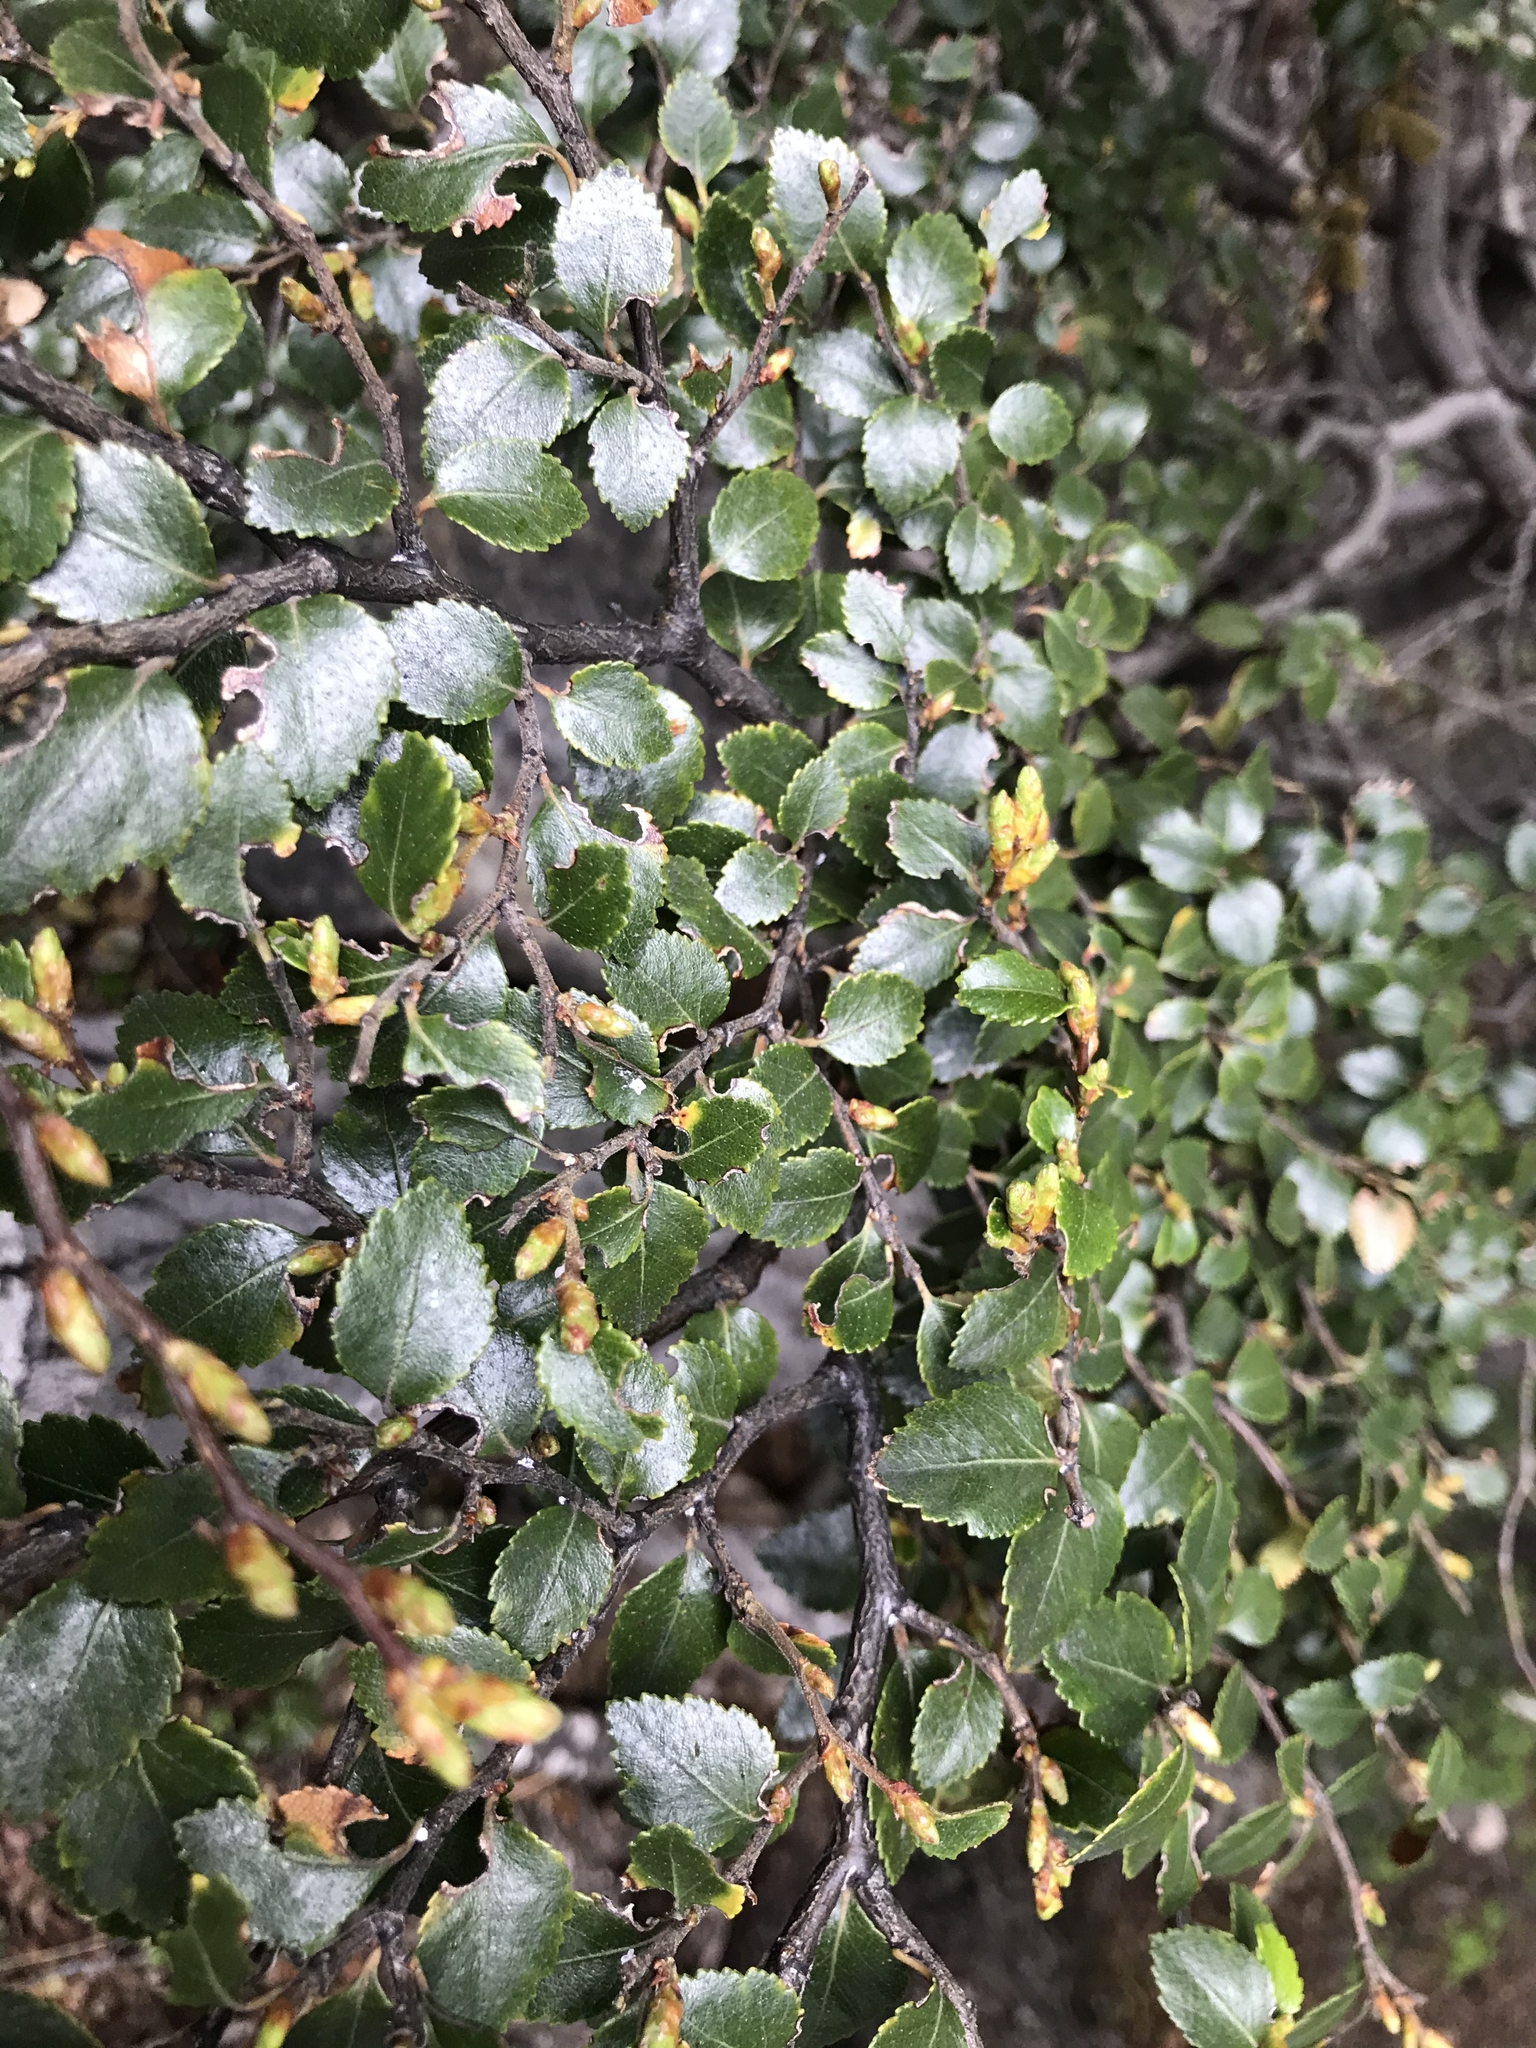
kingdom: Plantae
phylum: Tracheophyta
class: Magnoliopsida
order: Fagales
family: Nothofagaceae
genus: Nothofagus
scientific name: Nothofagus betuloides
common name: Magellan's beech
